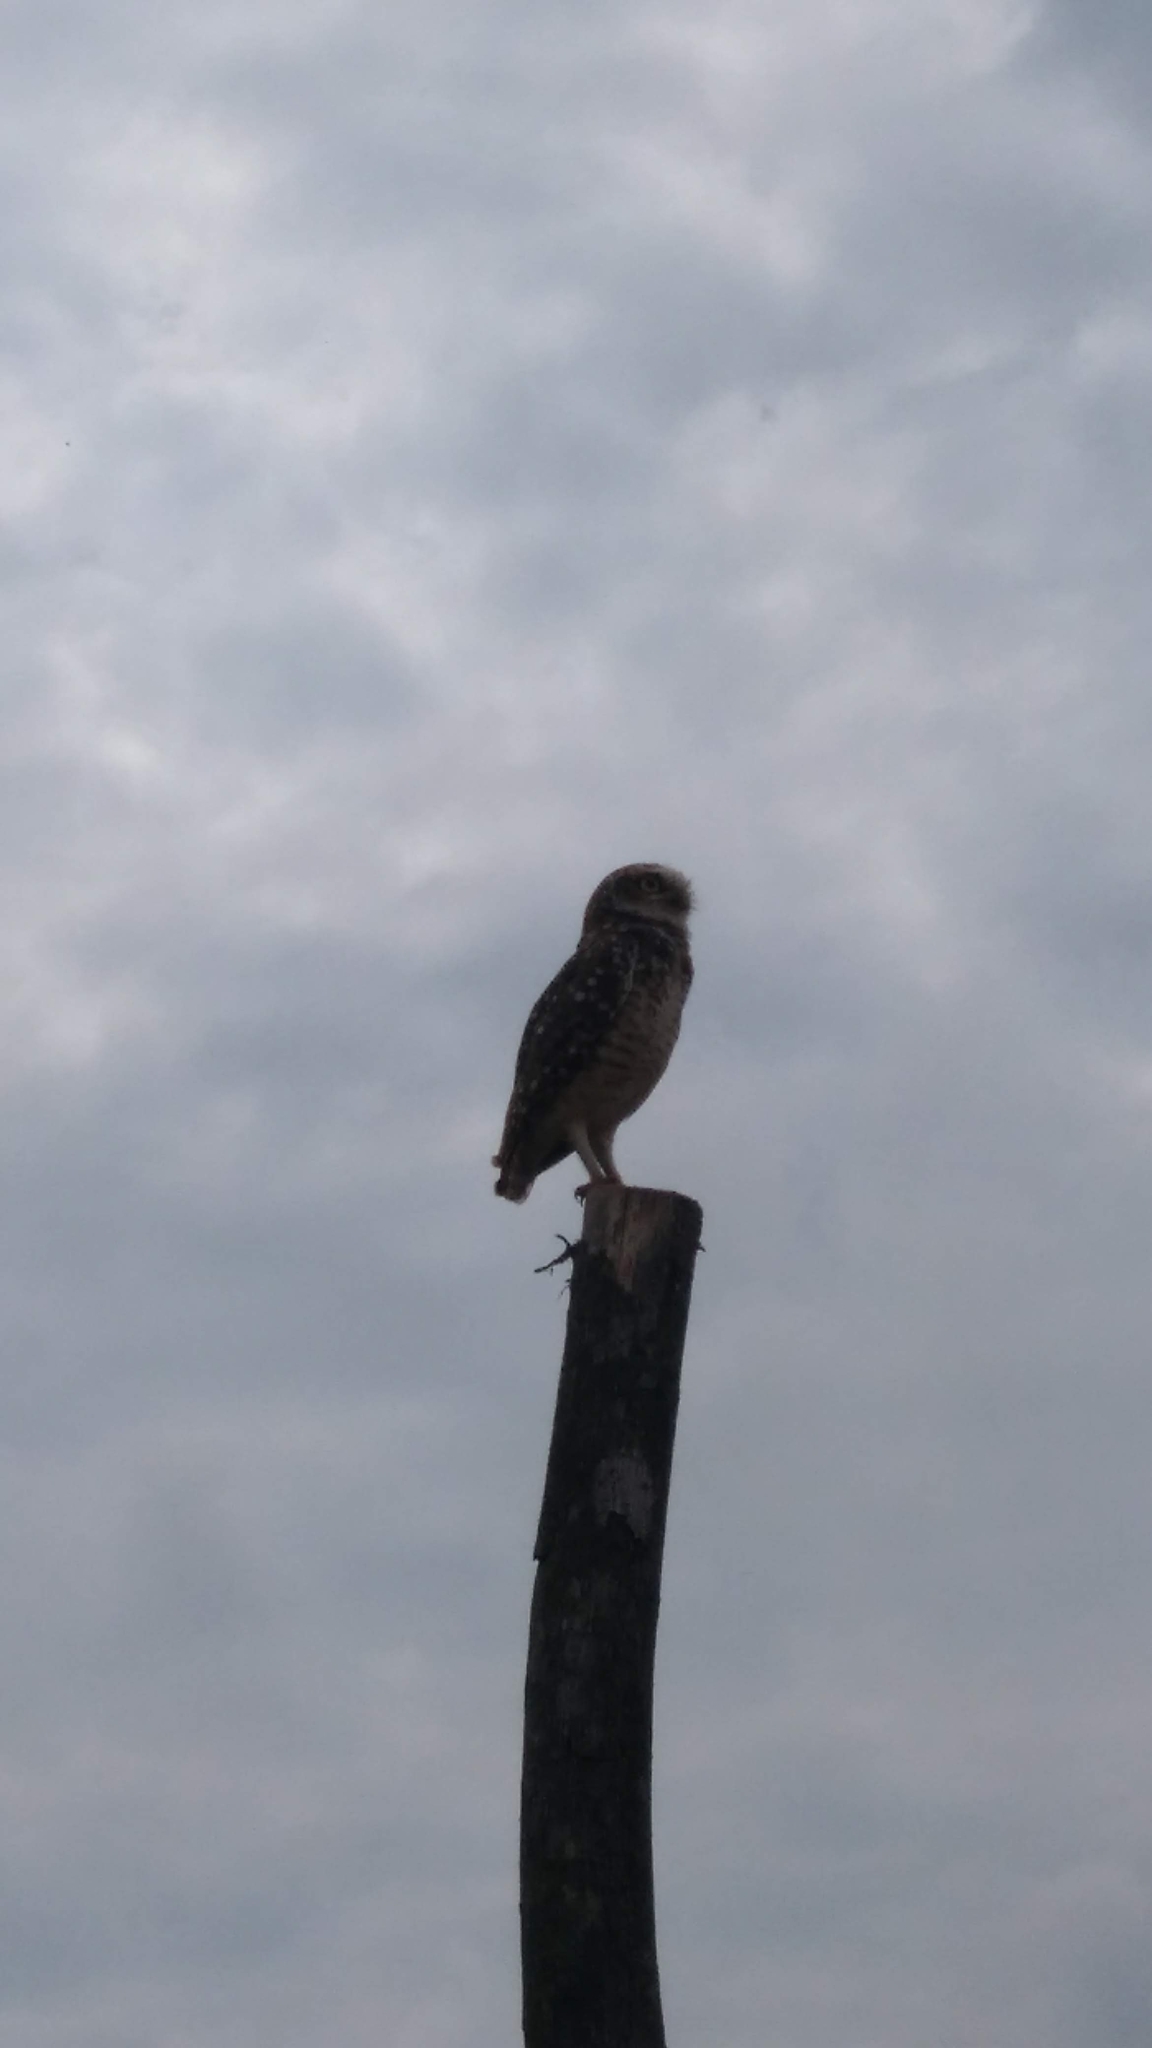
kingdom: Animalia
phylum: Chordata
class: Aves
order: Strigiformes
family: Strigidae
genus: Athene
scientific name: Athene cunicularia
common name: Burrowing owl
